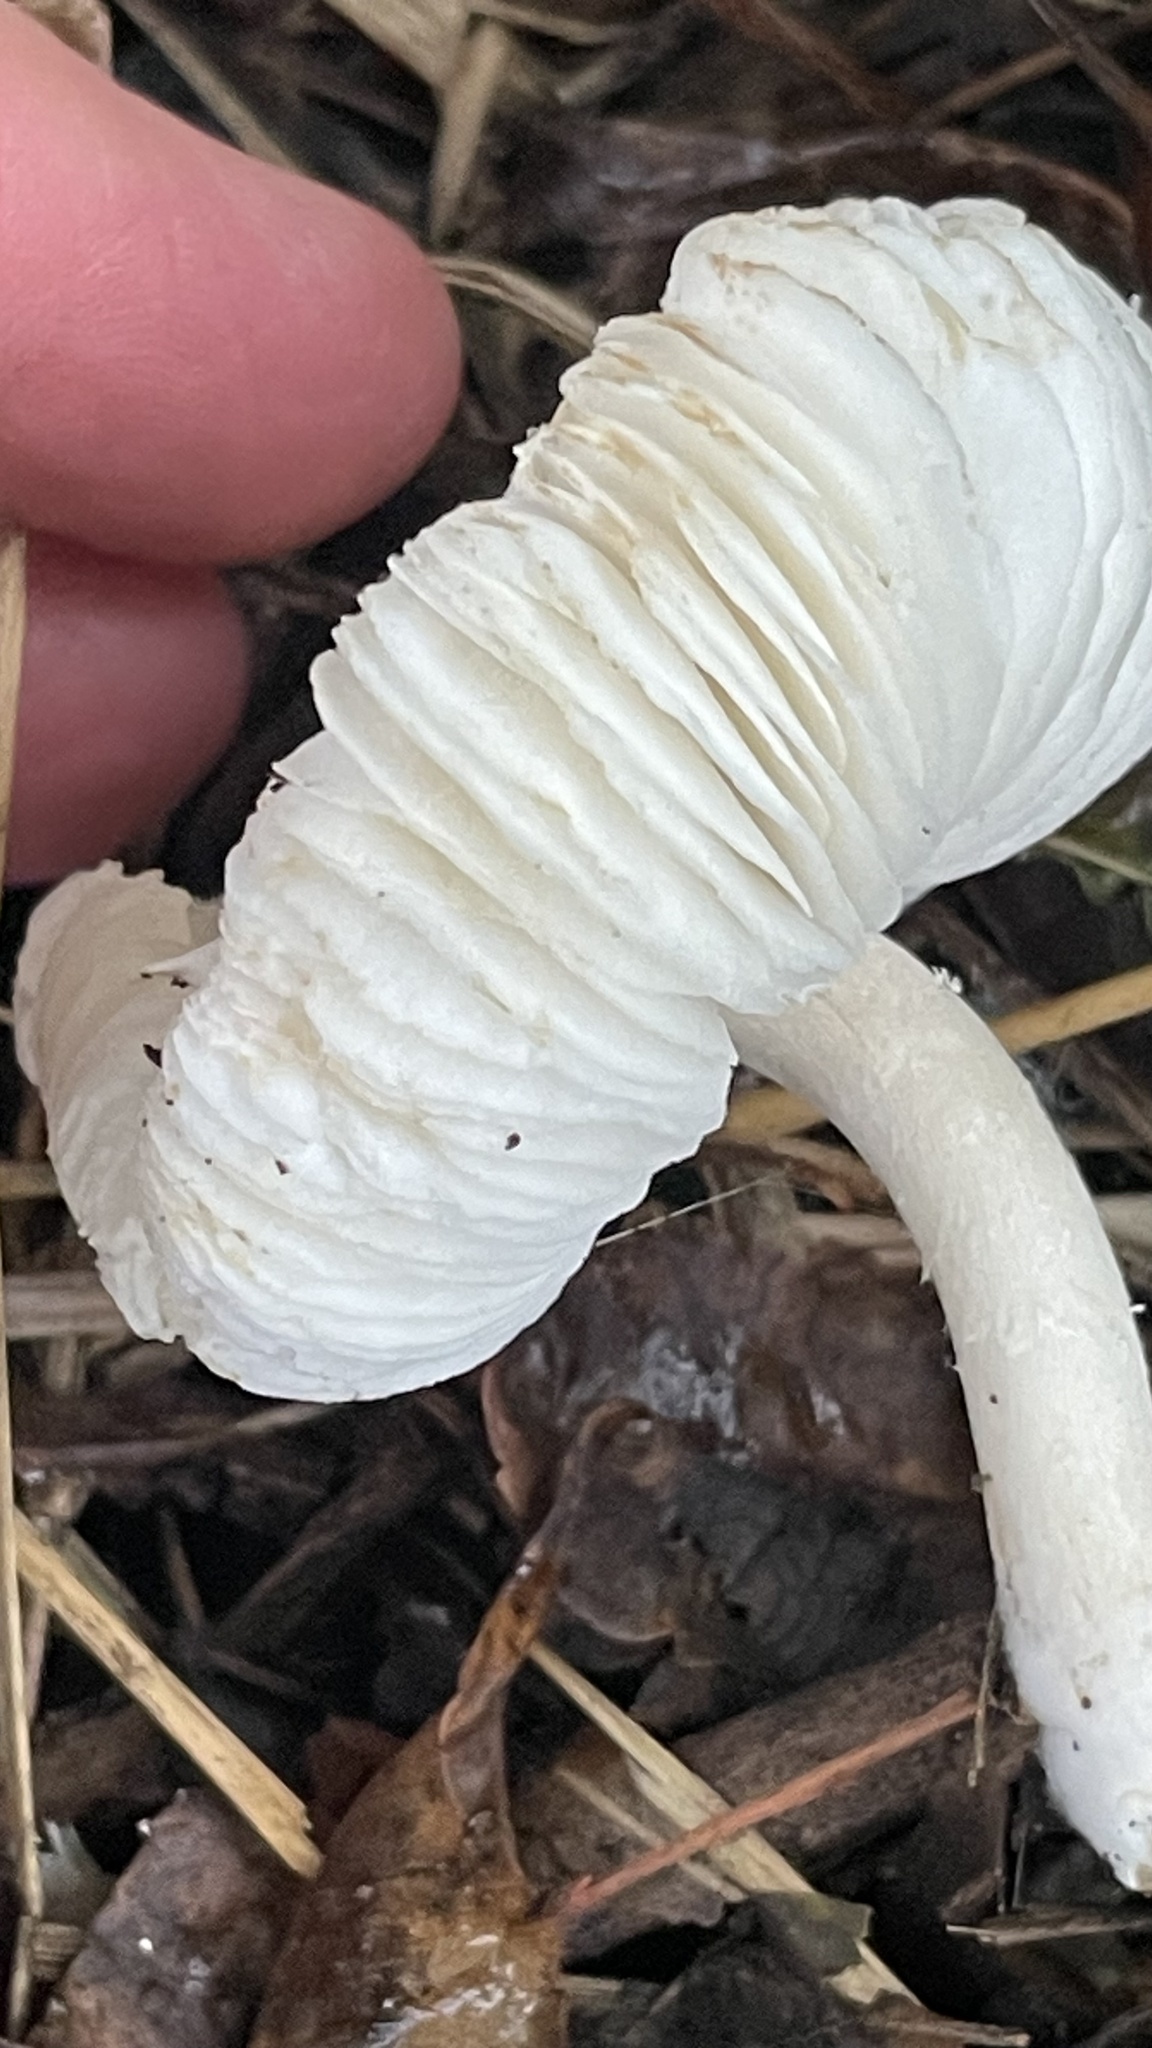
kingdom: Fungi
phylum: Basidiomycota
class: Agaricomycetes
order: Agaricales
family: Agaricaceae
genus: Leucocoprinus
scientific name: Leucocoprinus brebissonii
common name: Skullcap dapperling
